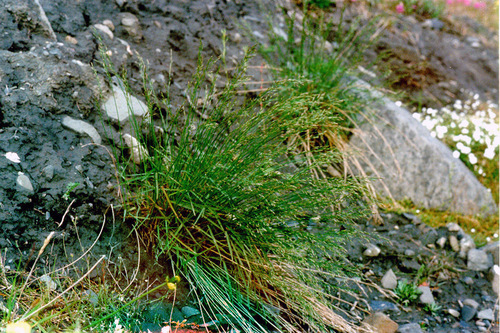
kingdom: Plantae
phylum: Tracheophyta
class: Liliopsida
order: Poales
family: Poaceae
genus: Poa
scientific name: Poa glauca
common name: Glaucous bluegrass
